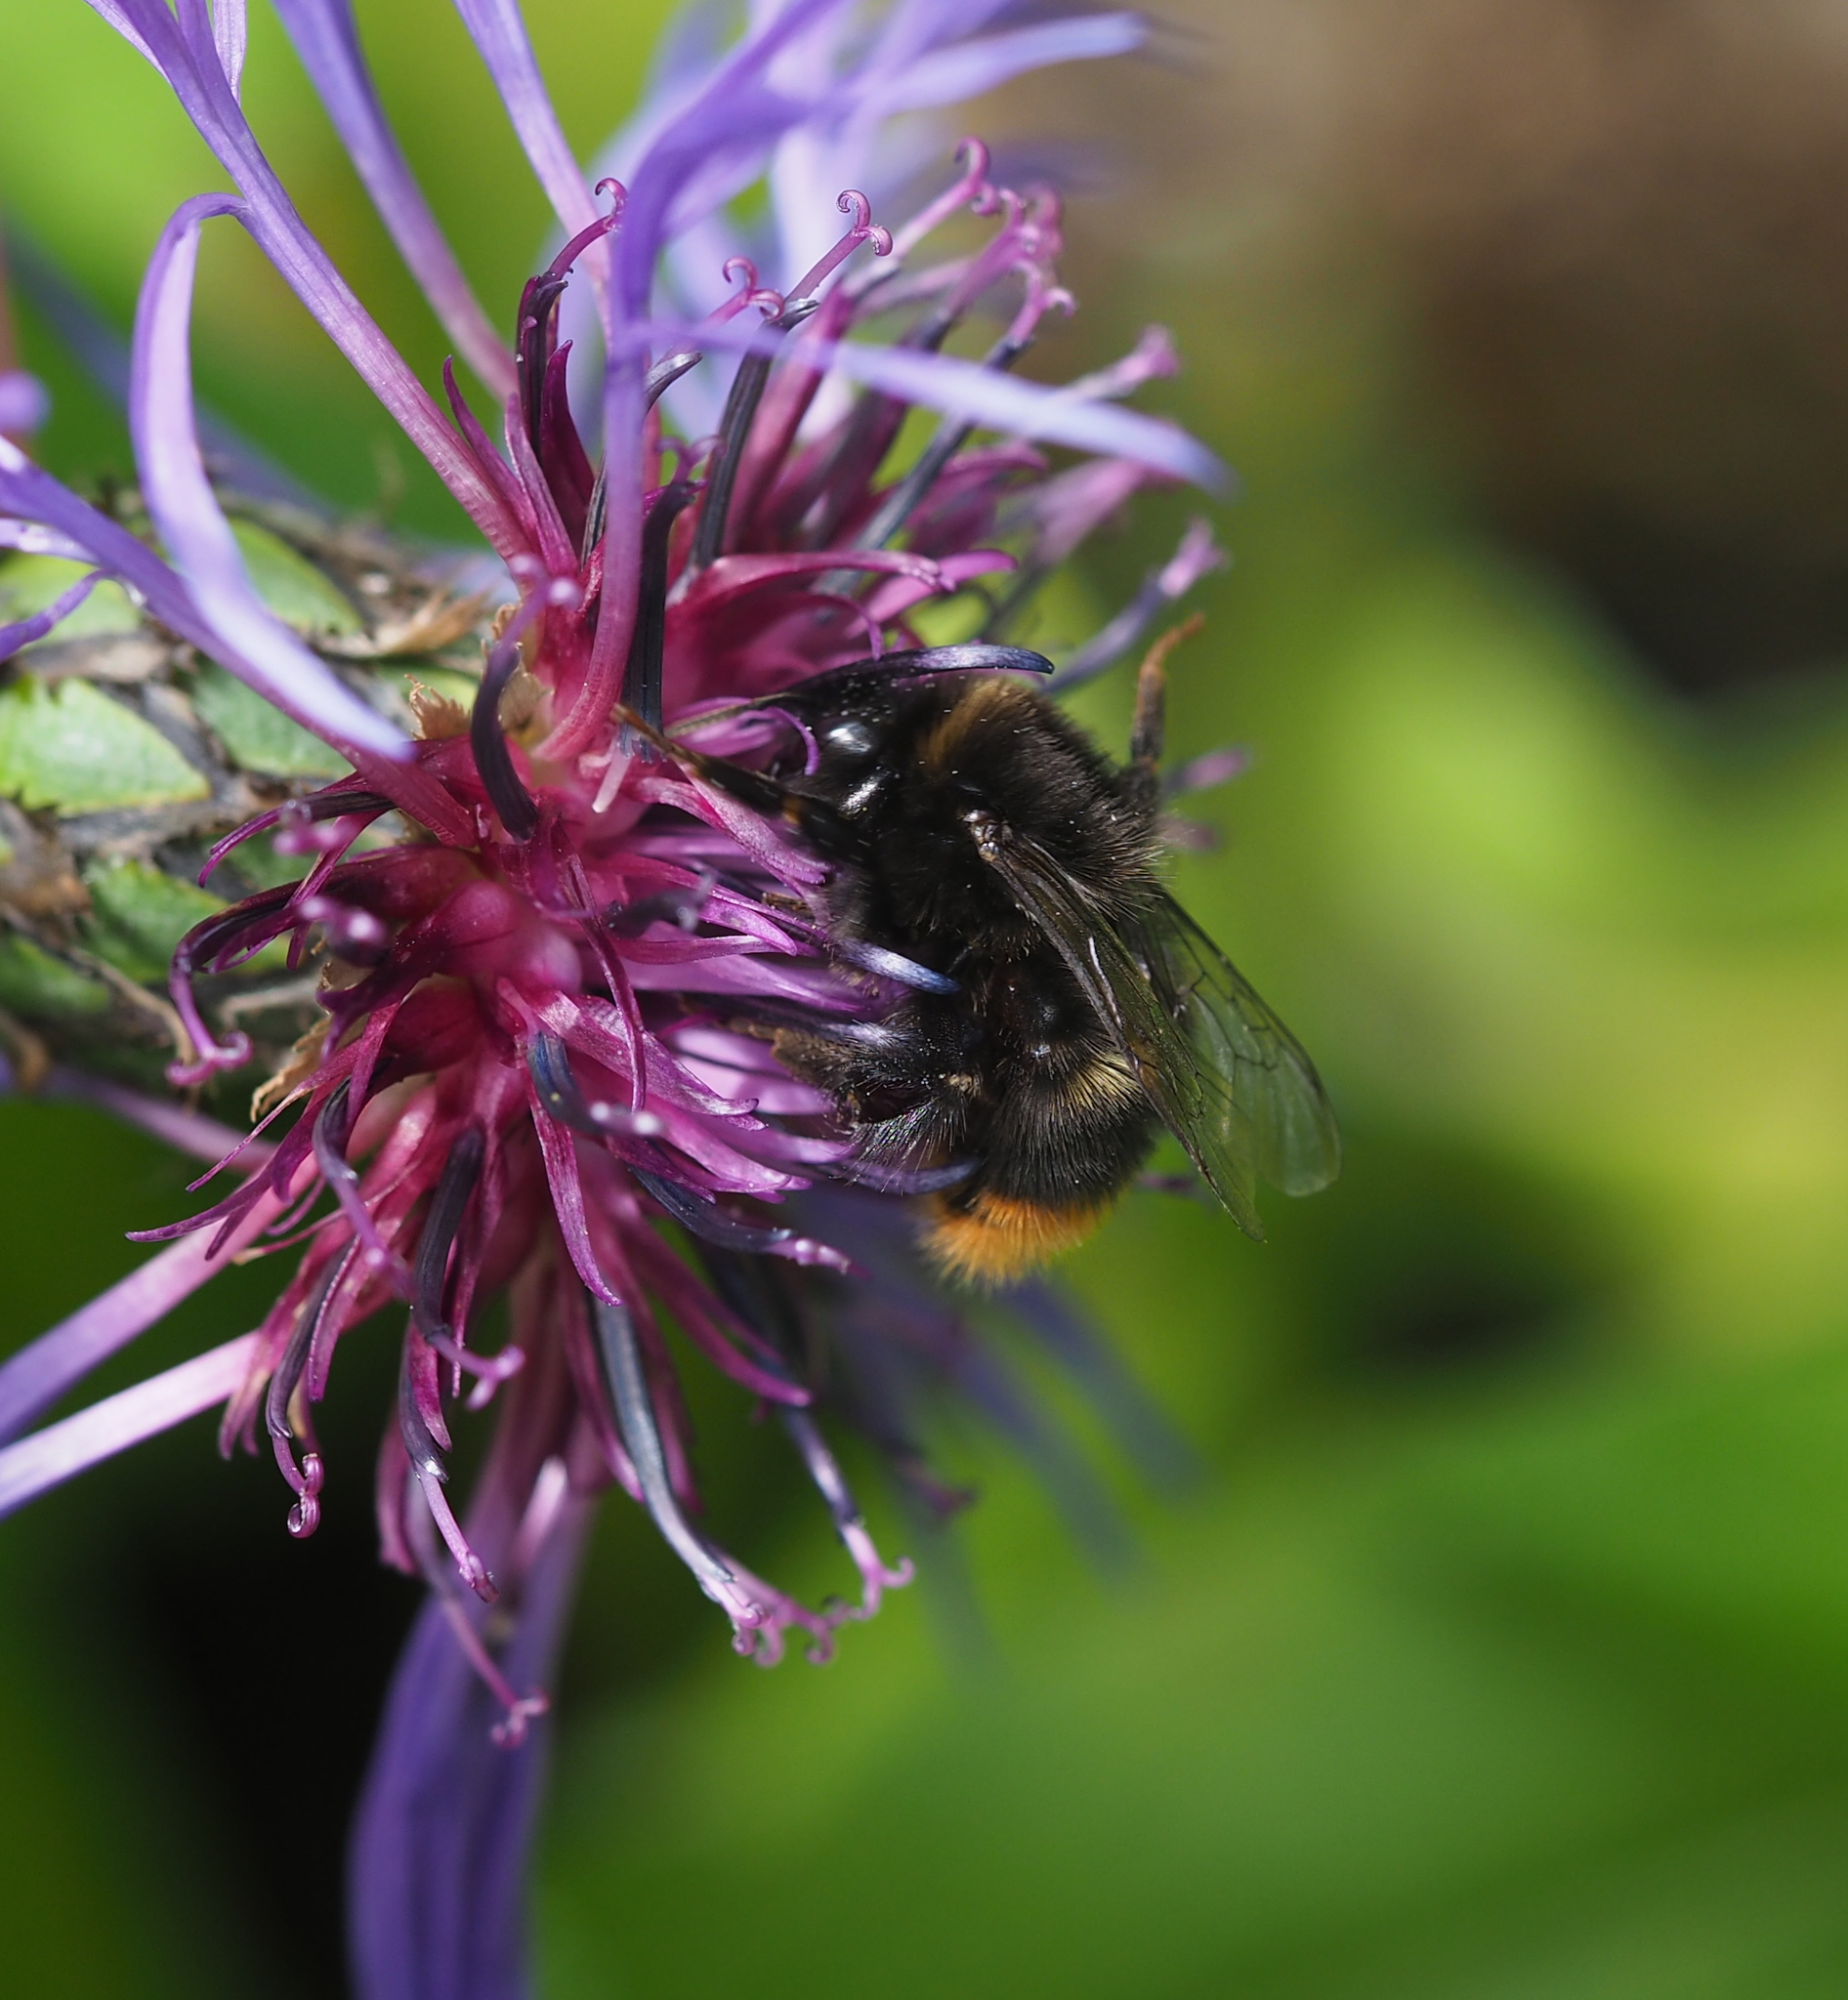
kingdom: Animalia
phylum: Arthropoda
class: Insecta
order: Hymenoptera
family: Apidae
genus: Bombus
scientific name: Bombus pratorum
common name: Early humble-bee
